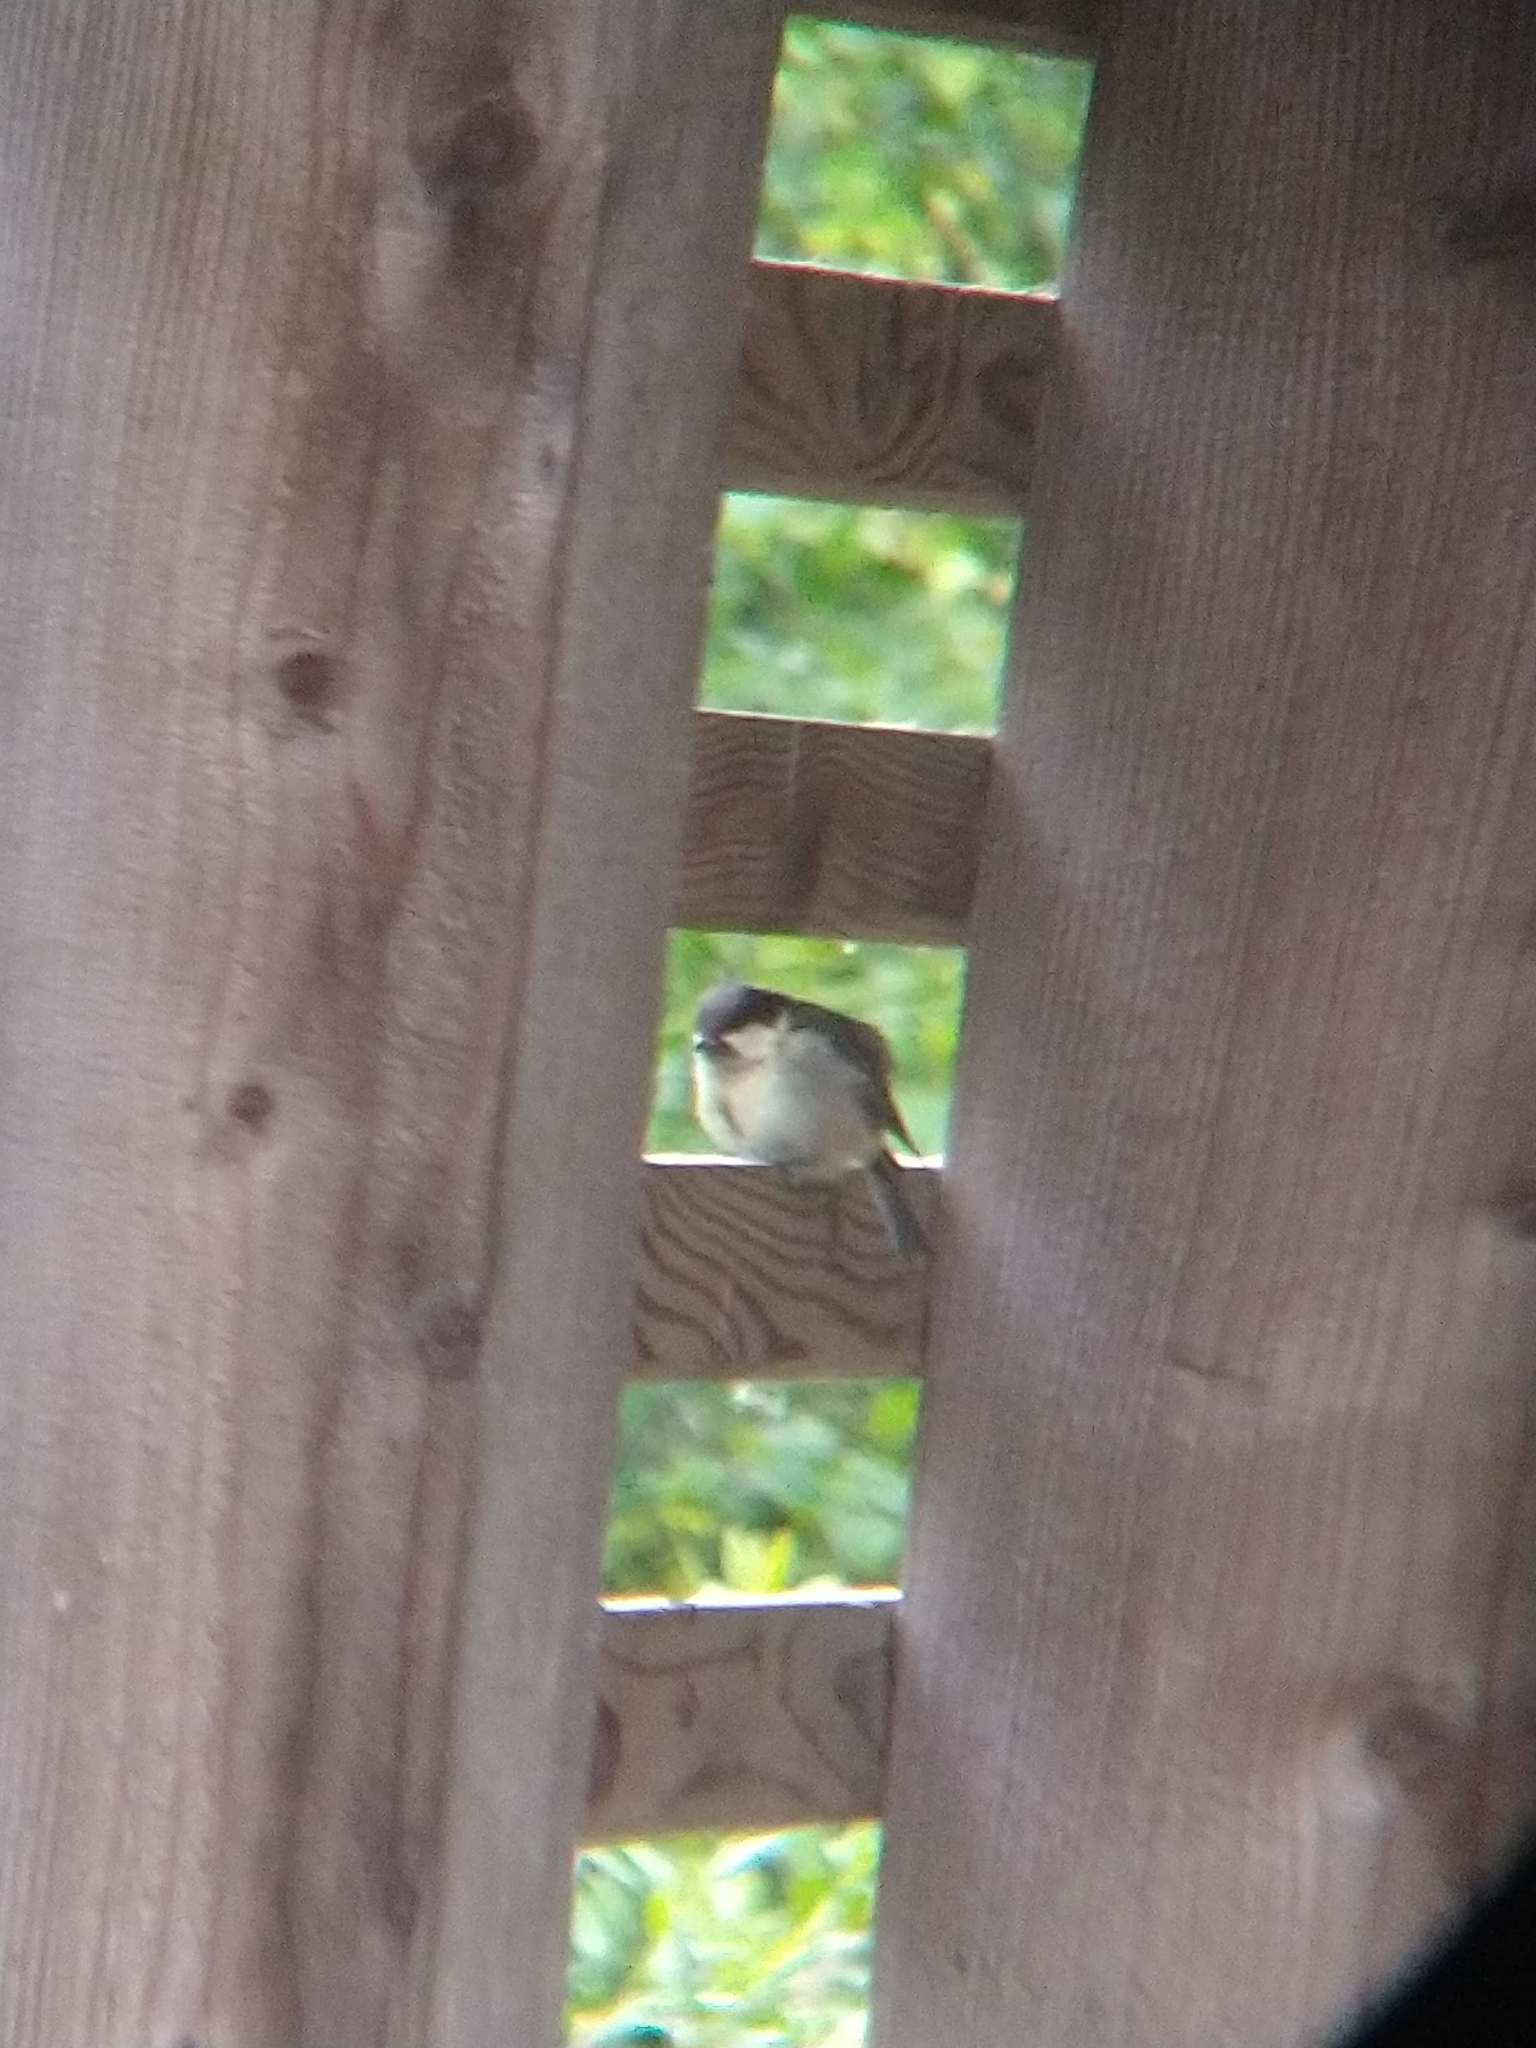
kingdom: Animalia
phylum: Chordata
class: Aves
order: Passeriformes
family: Paridae
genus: Parus
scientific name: Parus major
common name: Great tit
